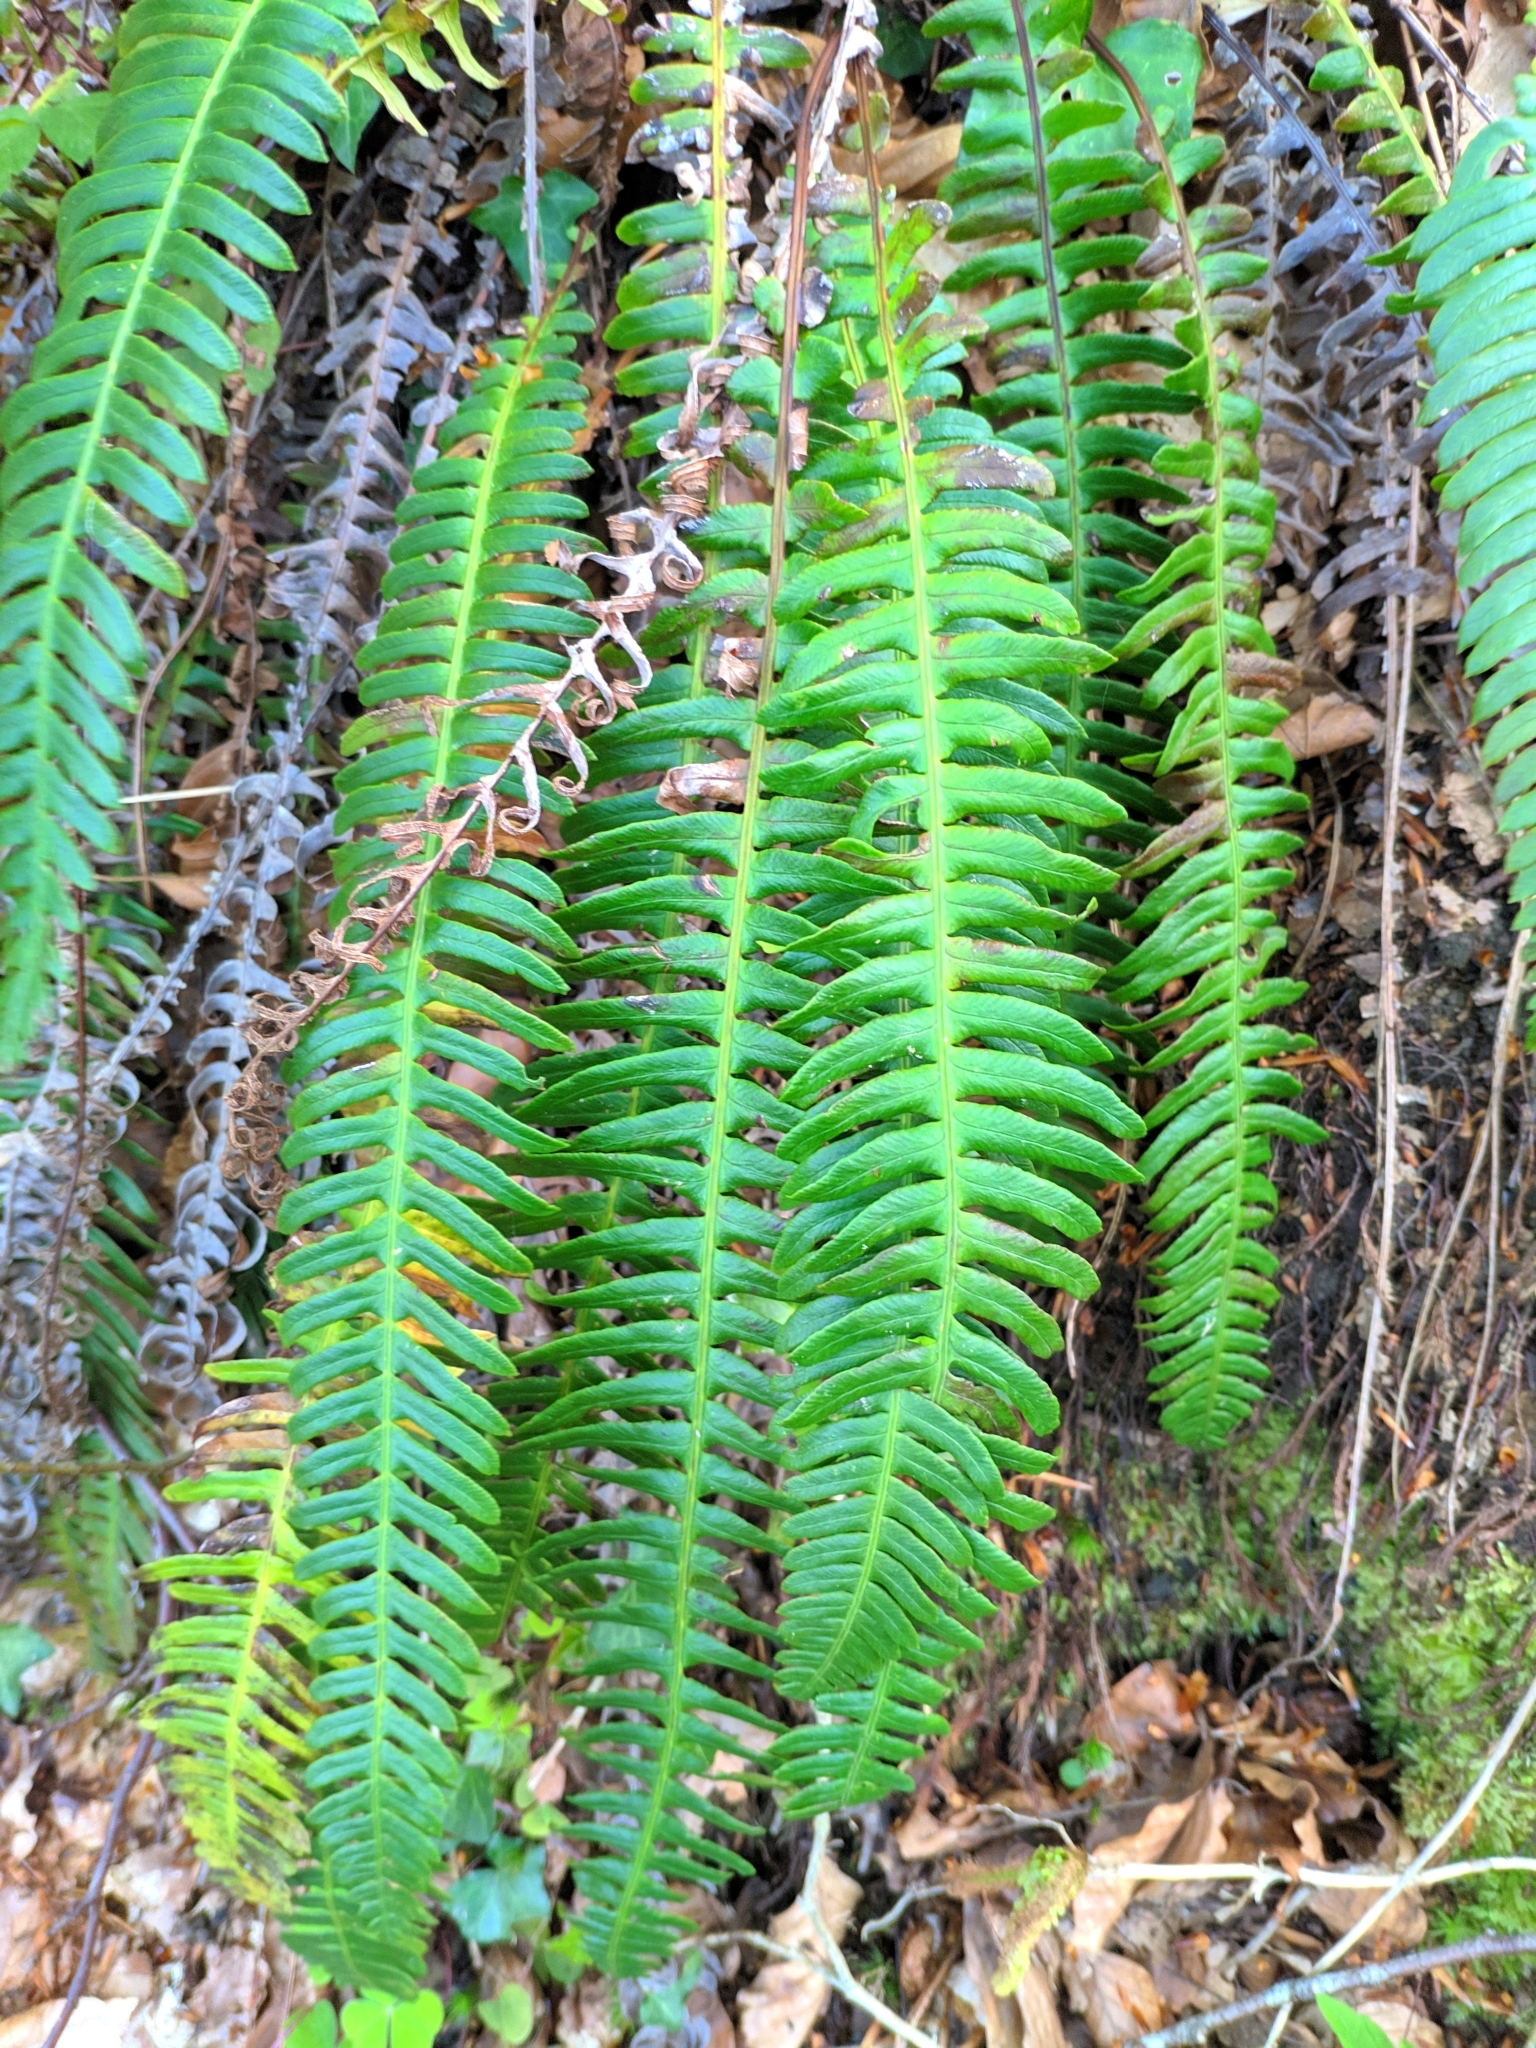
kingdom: Plantae
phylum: Tracheophyta
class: Polypodiopsida
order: Polypodiales
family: Blechnaceae
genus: Struthiopteris
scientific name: Struthiopteris spicant
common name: Deer fern
